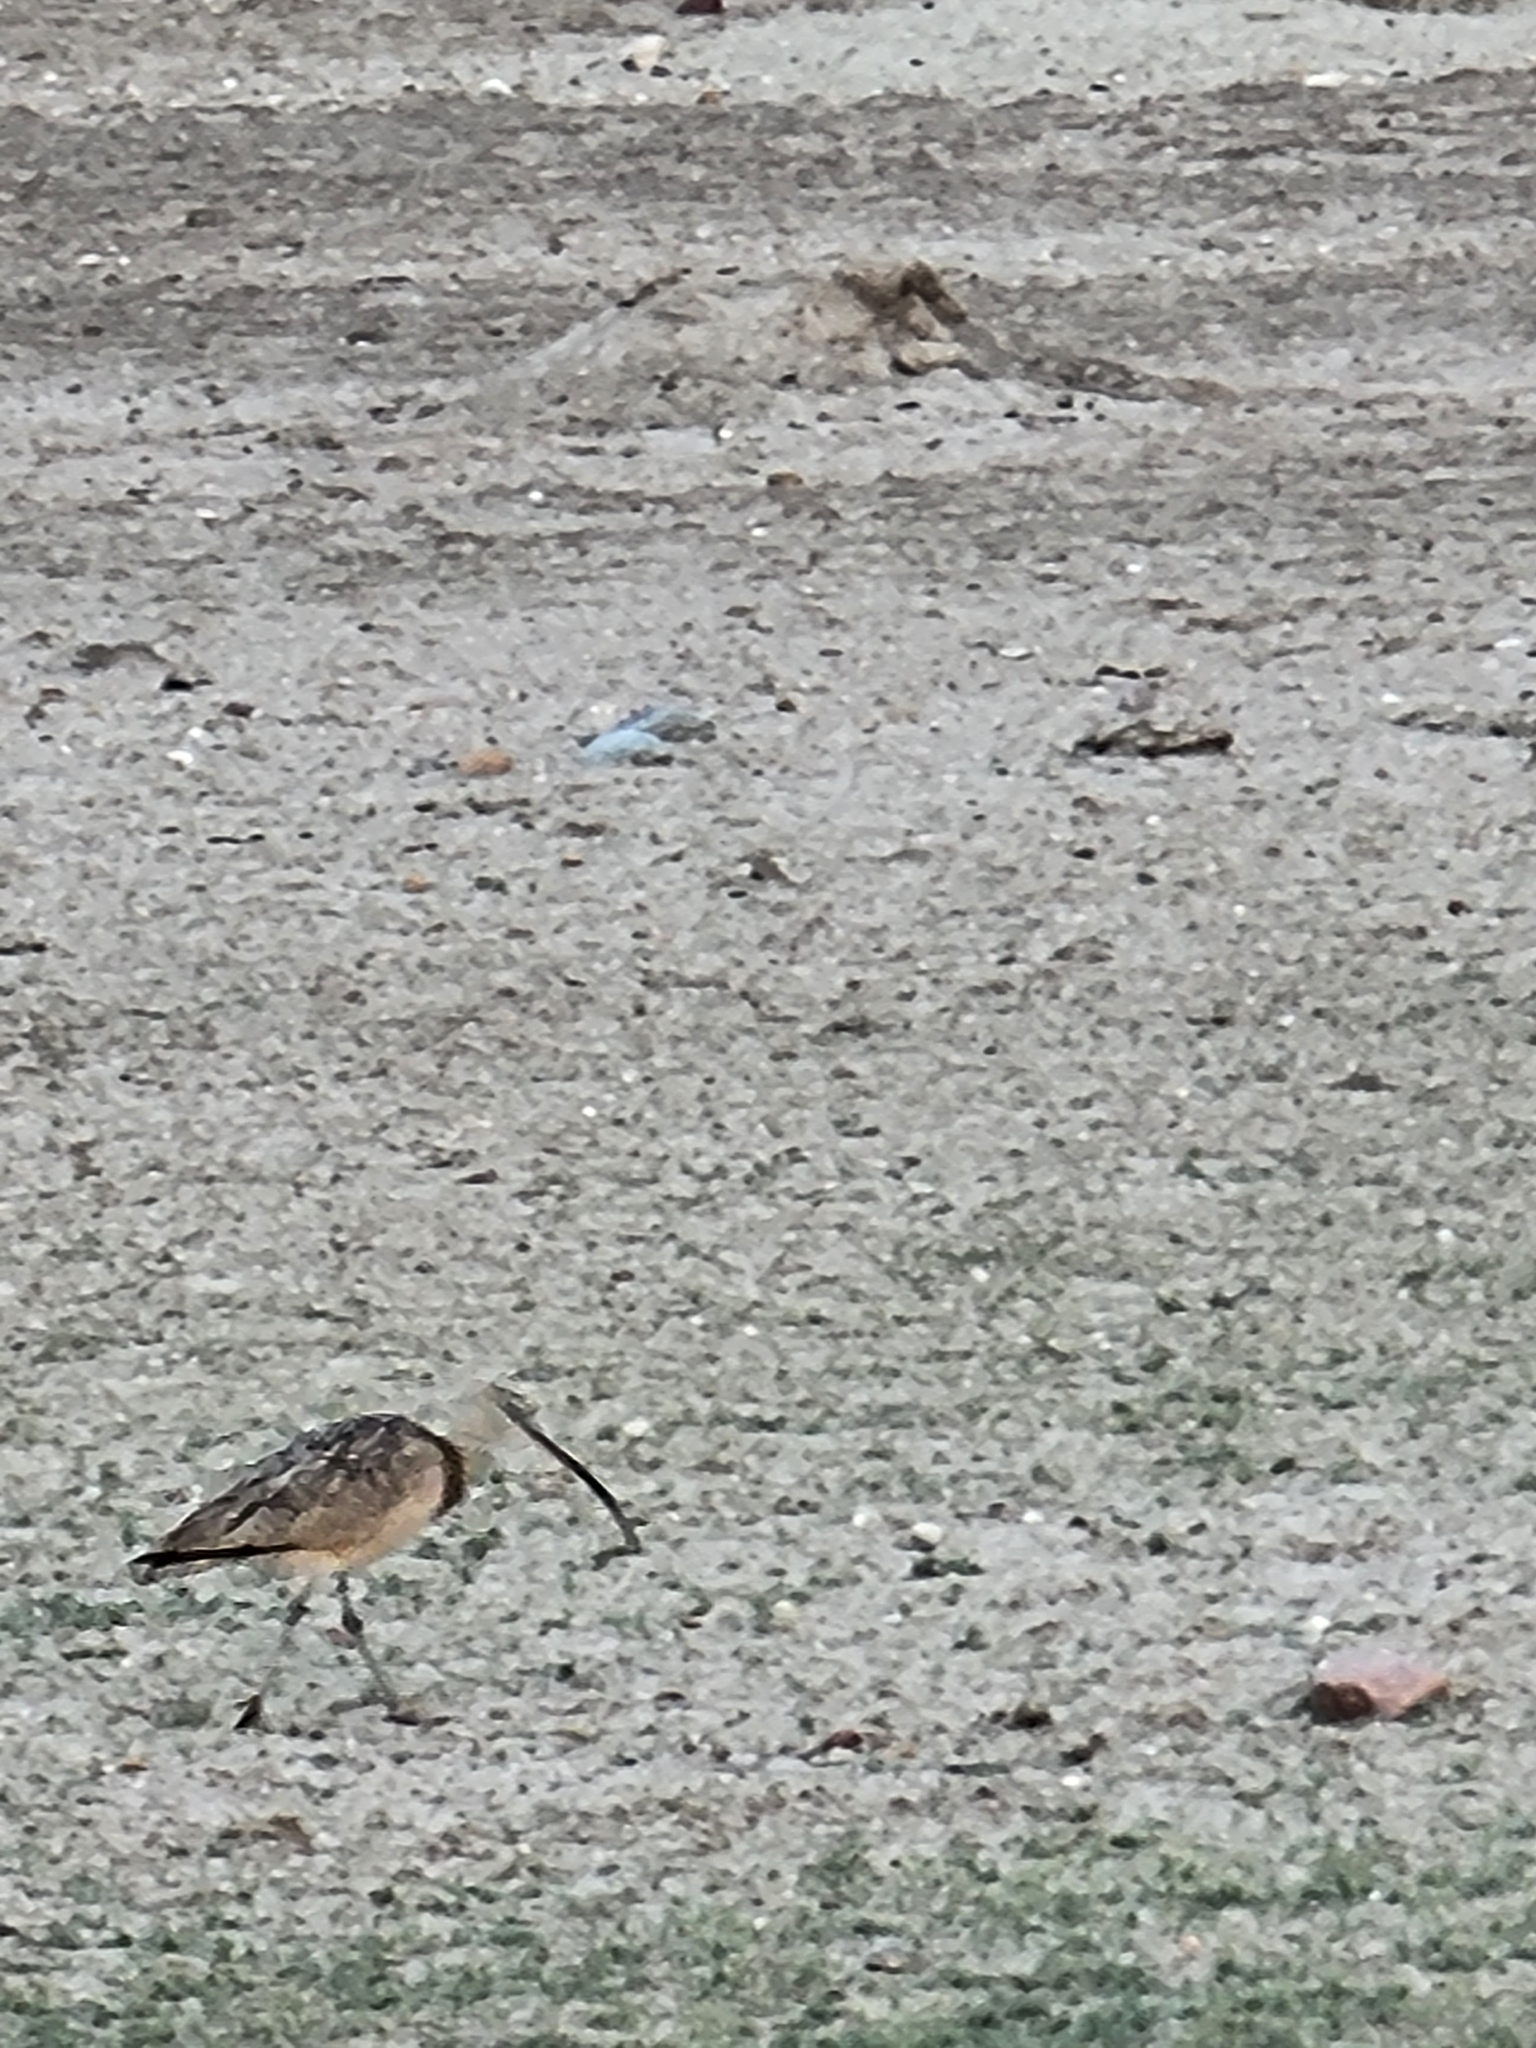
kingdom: Animalia
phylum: Chordata
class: Aves
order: Charadriiformes
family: Scolopacidae
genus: Numenius
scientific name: Numenius americanus
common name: Long-billed curlew
